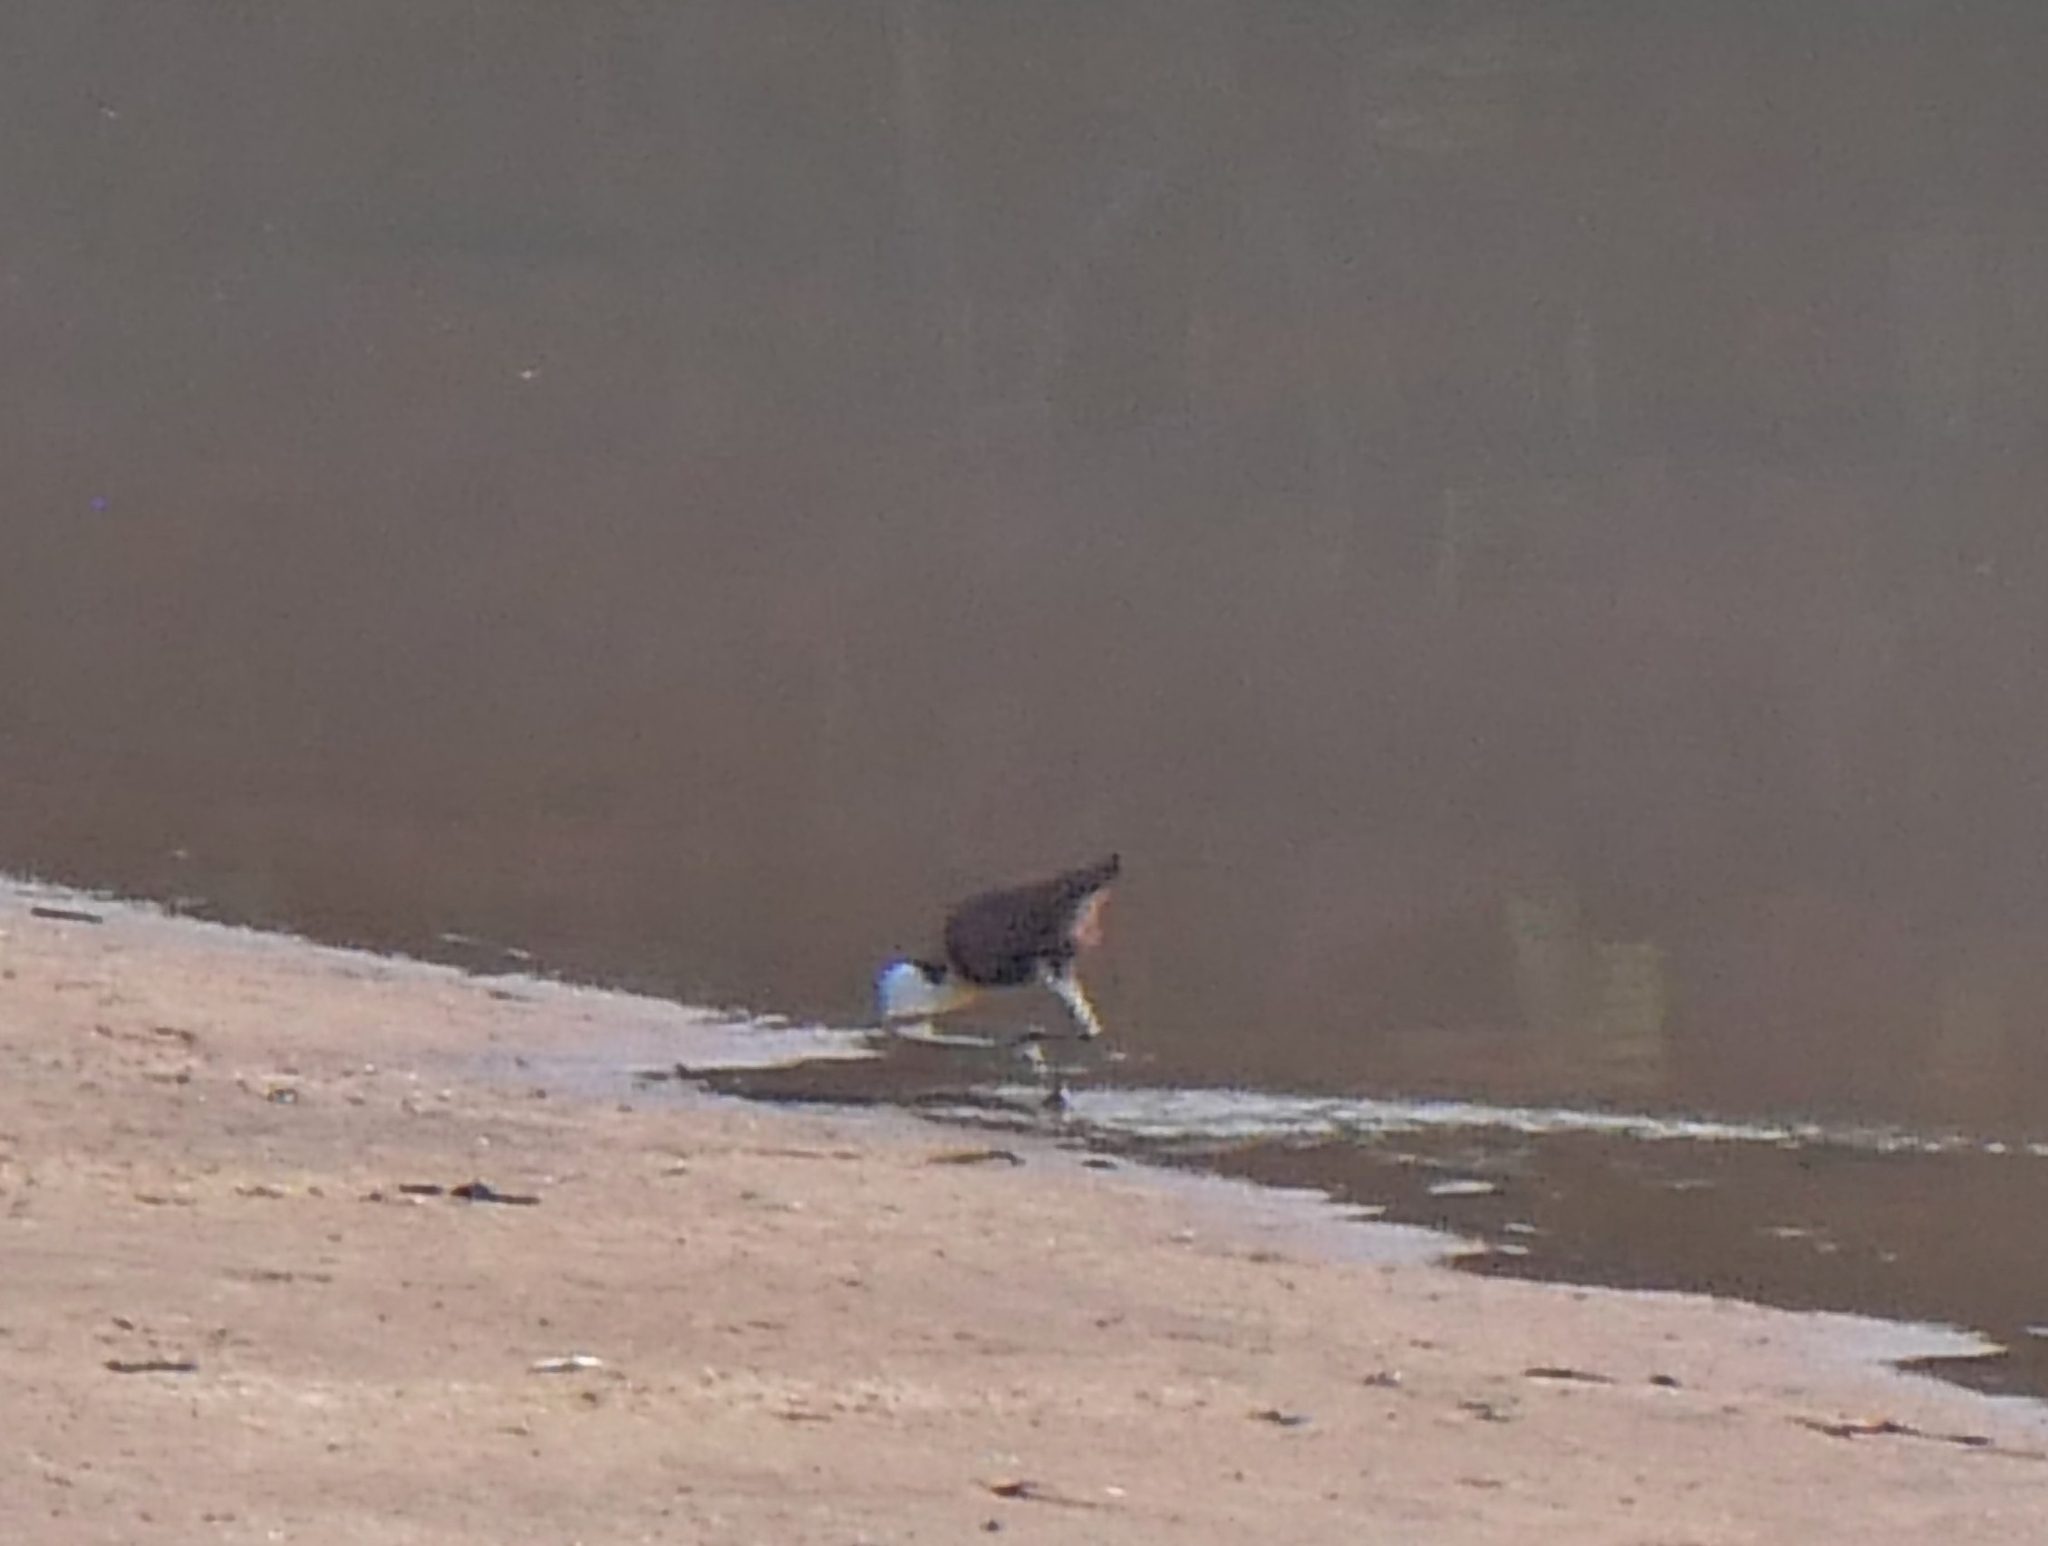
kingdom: Animalia
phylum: Chordata
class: Aves
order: Charadriiformes
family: Jacanidae
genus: Actophilornis
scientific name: Actophilornis africanus
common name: African jacana
